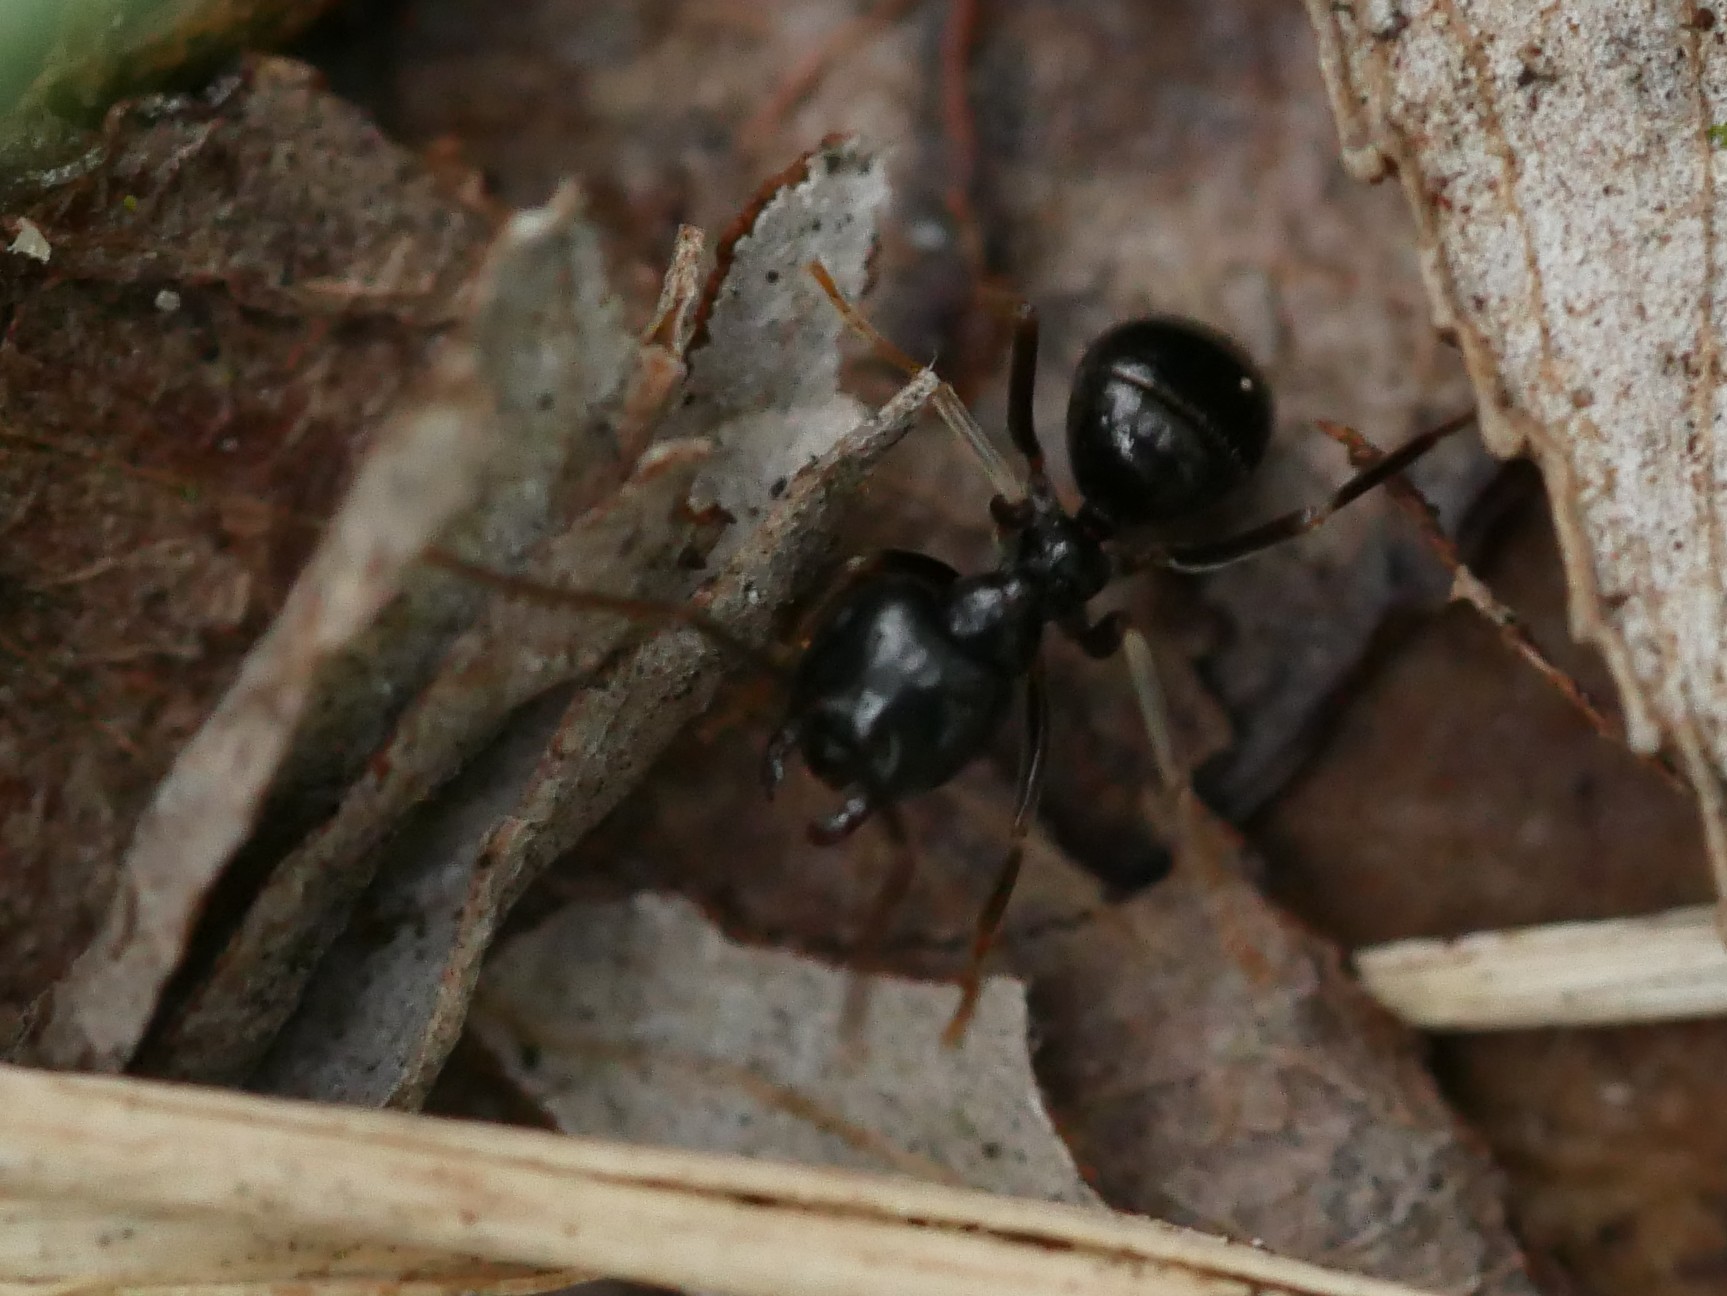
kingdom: Animalia
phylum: Arthropoda
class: Insecta
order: Hymenoptera
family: Formicidae
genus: Lasius
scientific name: Lasius fuliginosus
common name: Jet ant
